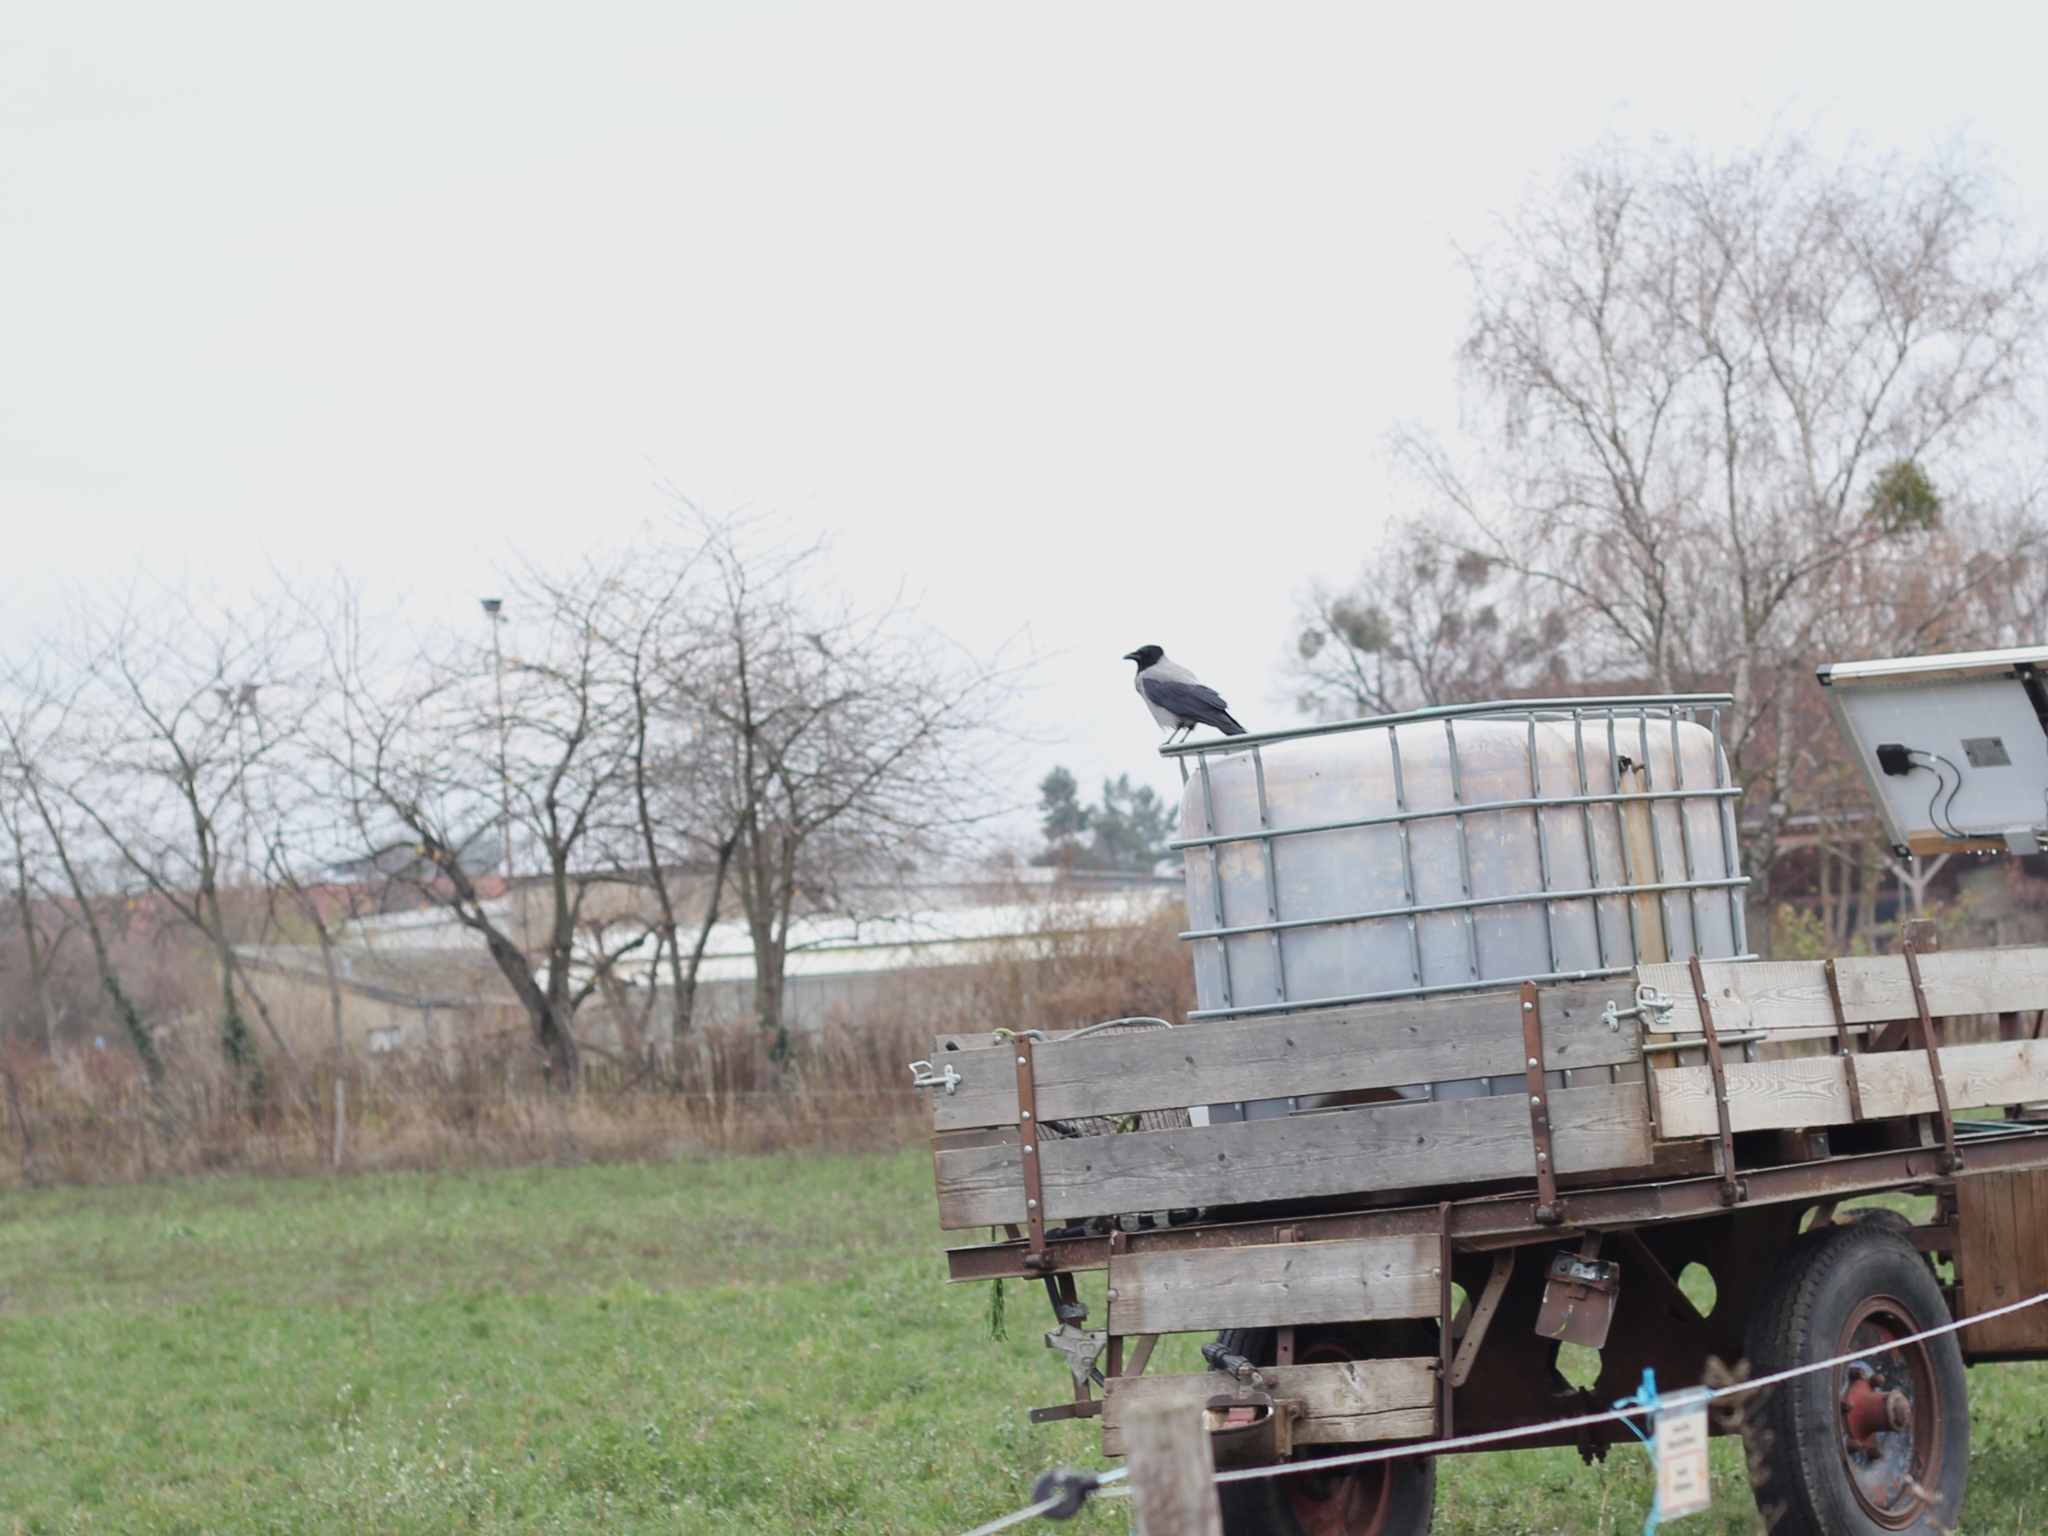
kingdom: Animalia
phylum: Chordata
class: Aves
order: Passeriformes
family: Corvidae
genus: Corvus
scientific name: Corvus cornix
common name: Hooded crow
